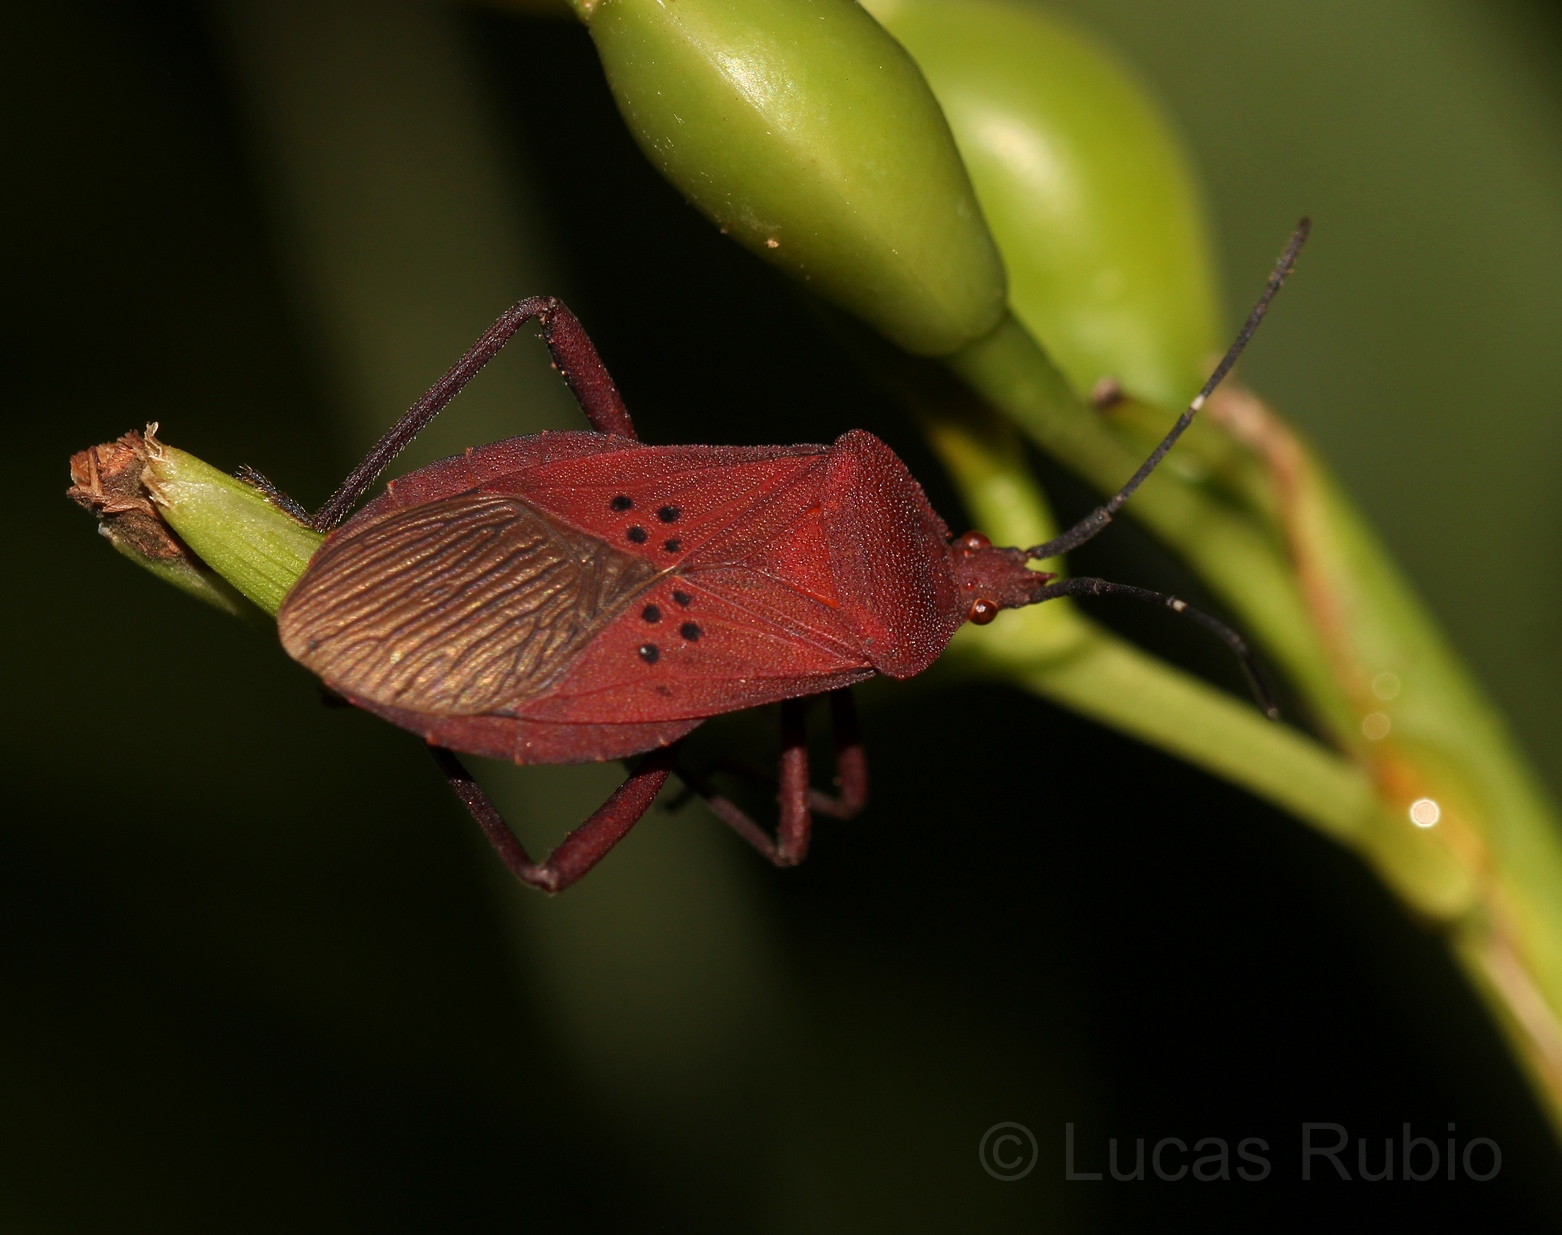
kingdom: Animalia
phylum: Arthropoda
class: Insecta
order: Hemiptera
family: Coreidae
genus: Ugnius
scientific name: Ugnius badius
